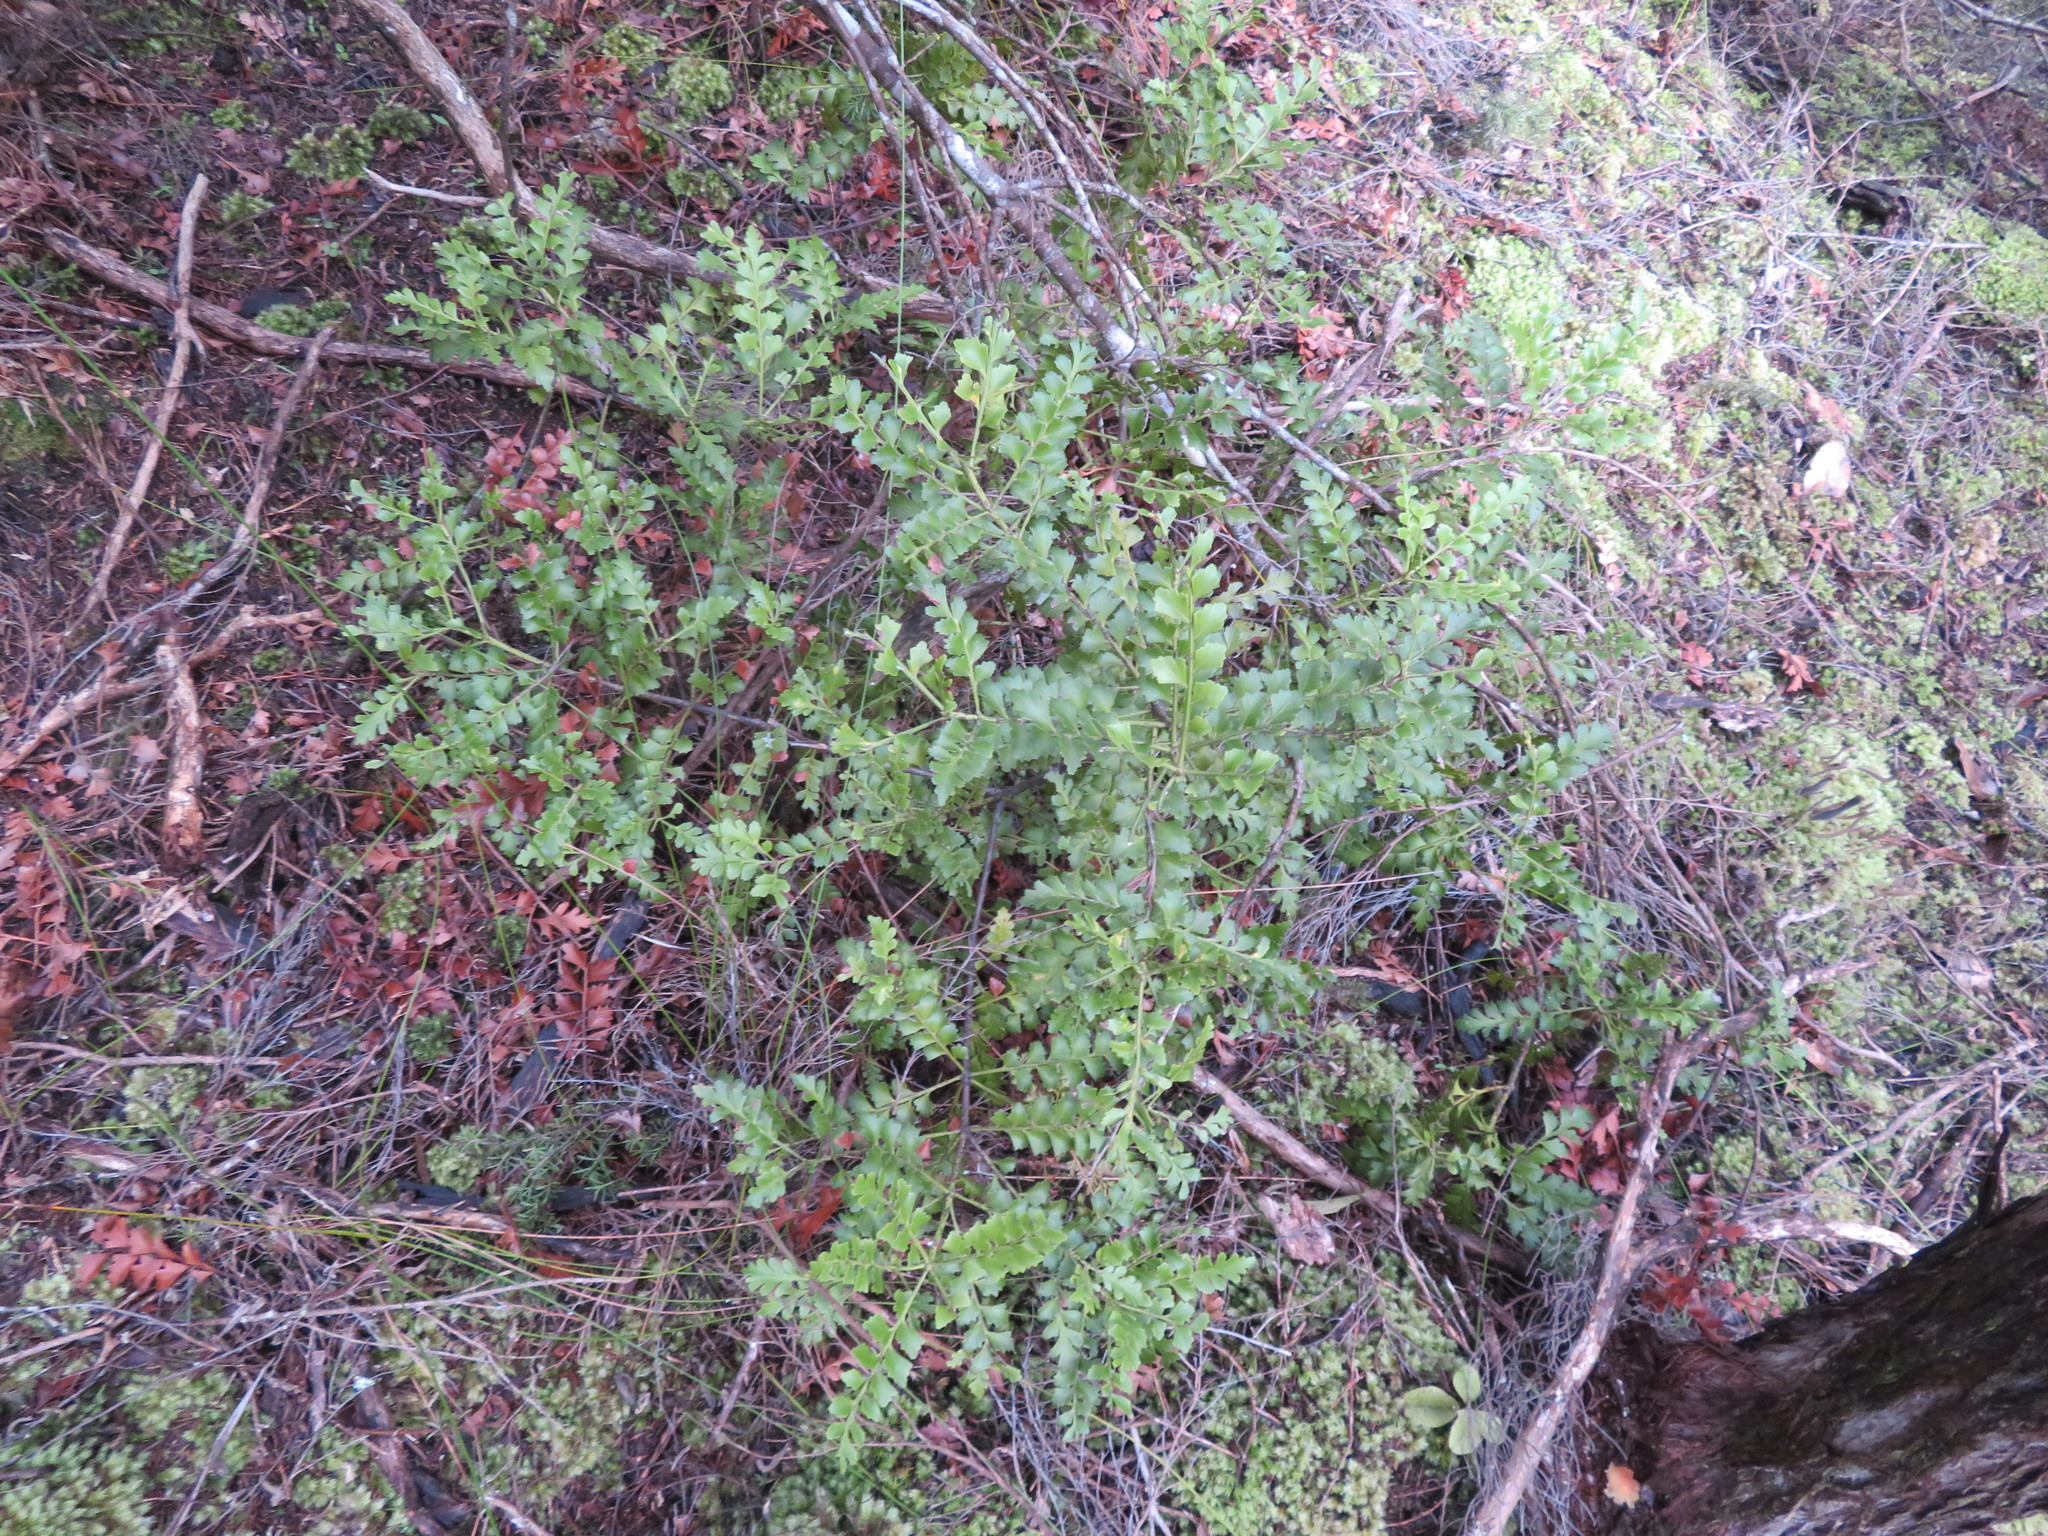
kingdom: Plantae
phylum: Tracheophyta
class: Pinopsida
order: Pinales
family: Phyllocladaceae
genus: Phyllocladus
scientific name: Phyllocladus trichomanoides
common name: Celery pine
